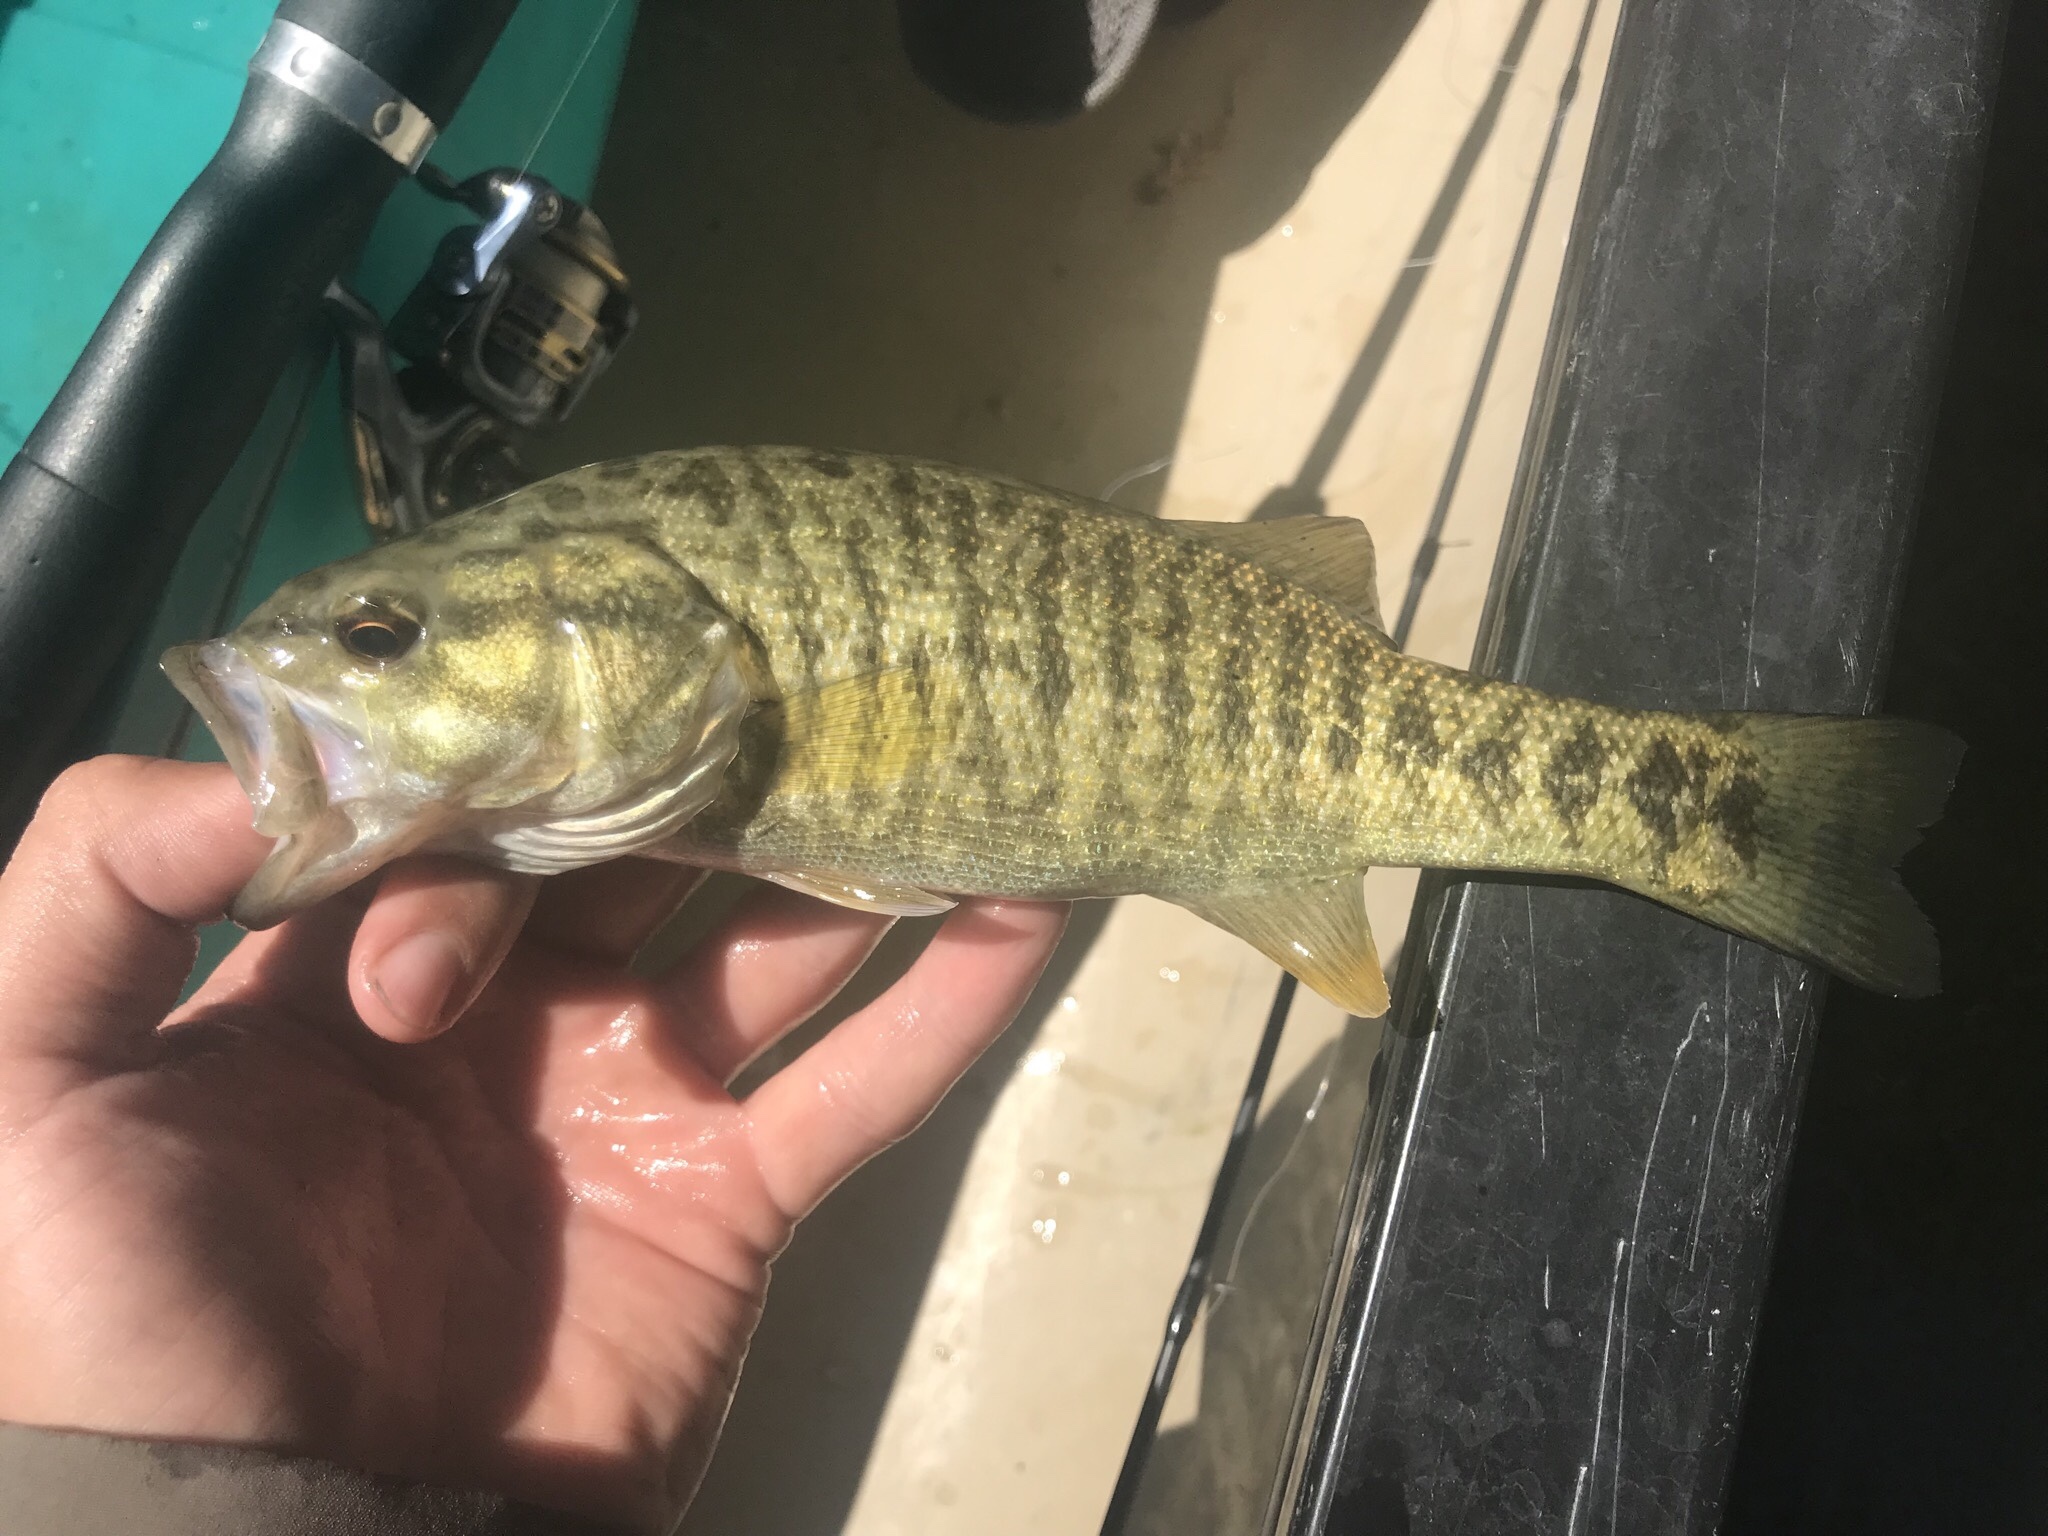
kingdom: Animalia
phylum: Chordata
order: Perciformes
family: Centrarchidae
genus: Micropterus
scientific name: Micropterus
